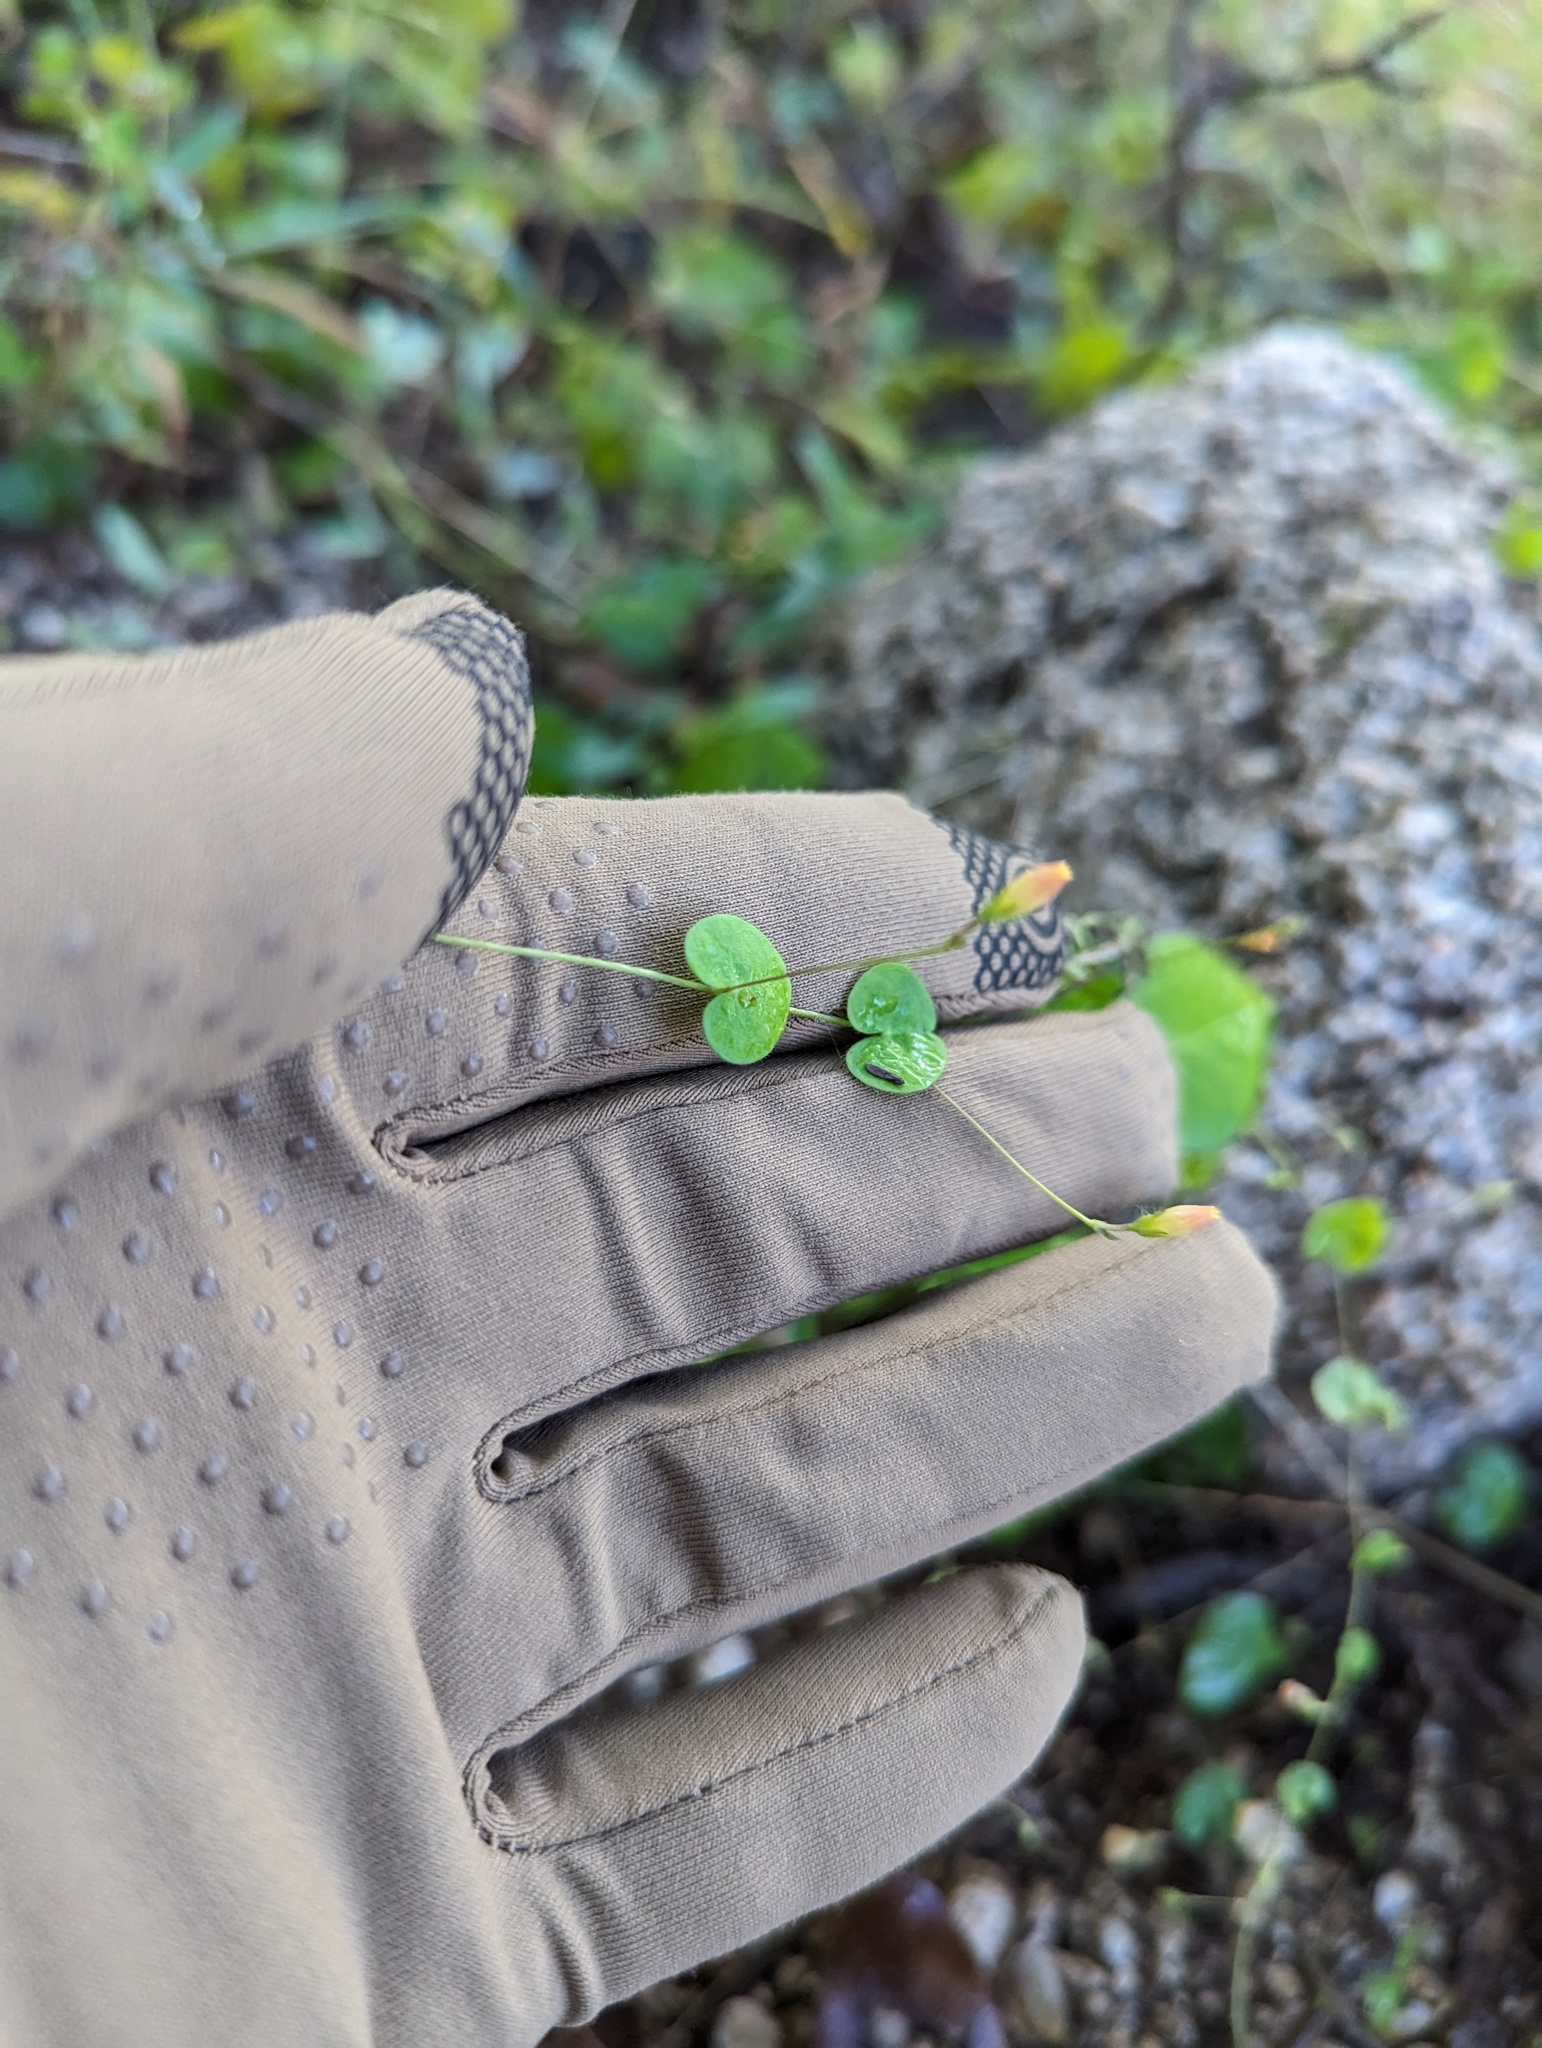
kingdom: Plantae
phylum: Tracheophyta
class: Magnoliopsida
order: Solanales
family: Convolvulaceae
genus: Ipomoea
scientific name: Ipomoea minutiflora
